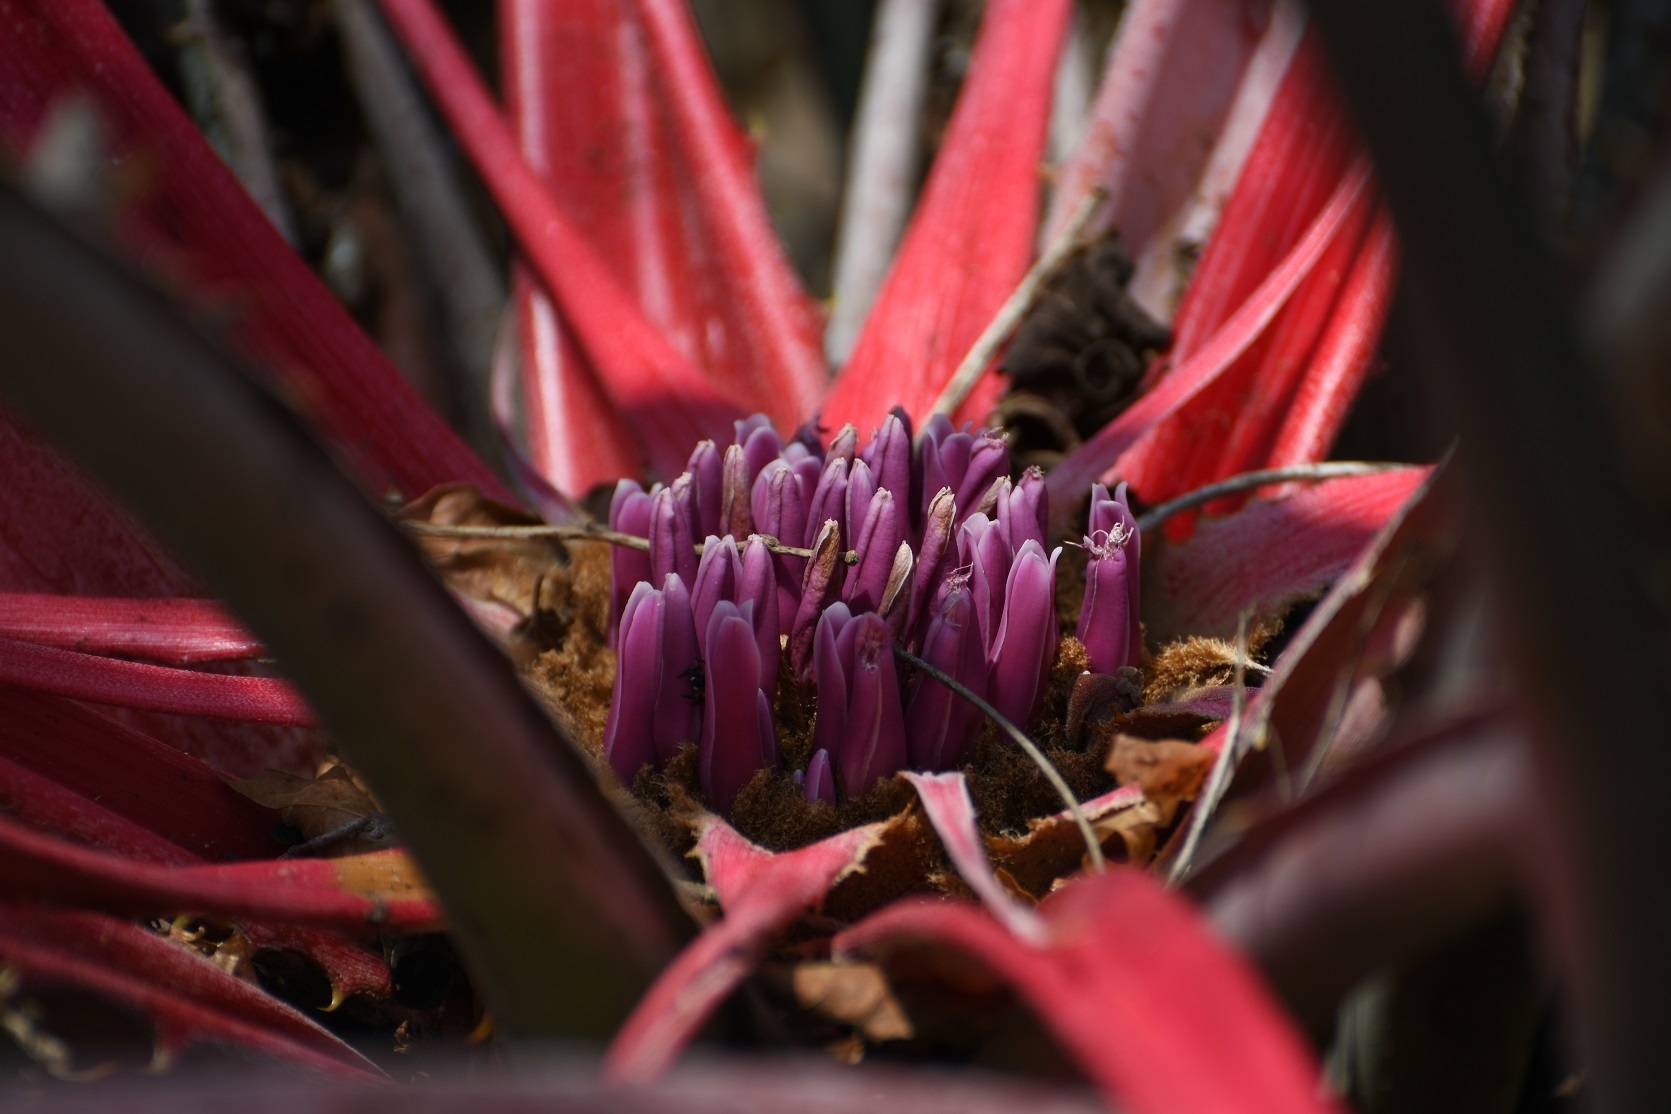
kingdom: Plantae
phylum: Tracheophyta
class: Liliopsida
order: Poales
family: Bromeliaceae
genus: Bromelia
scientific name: Bromelia karatas
